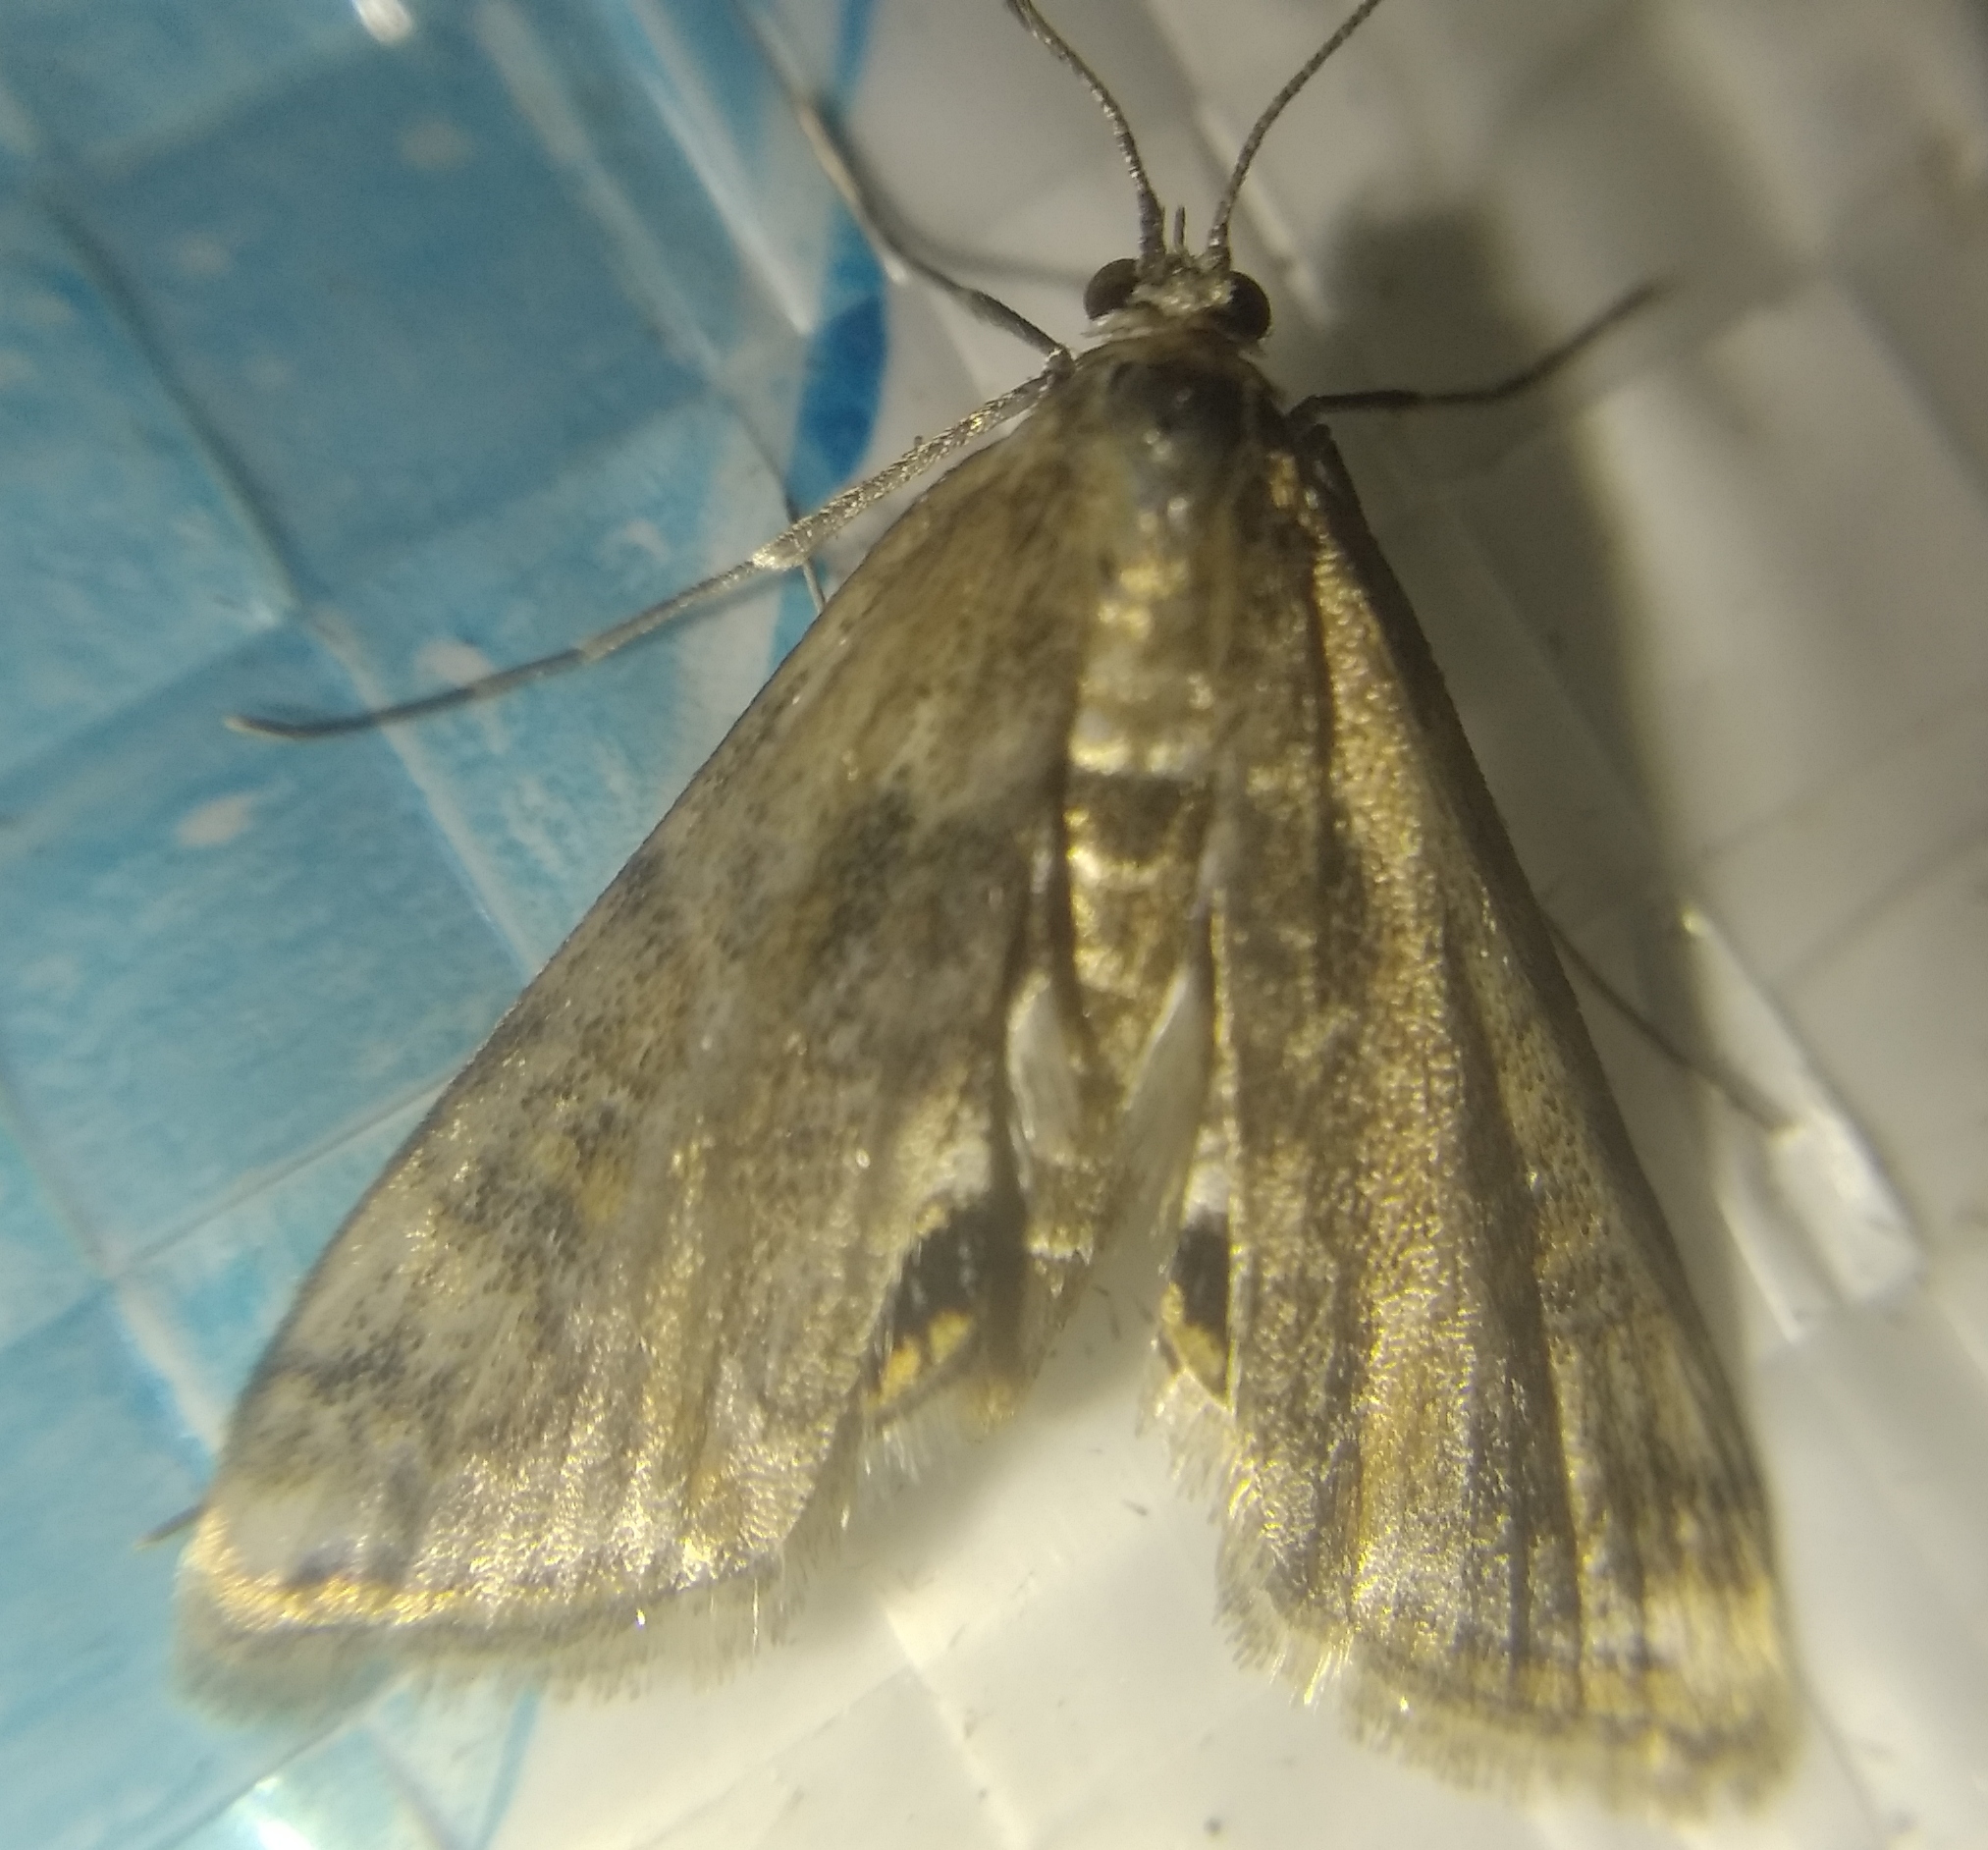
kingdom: Animalia
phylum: Arthropoda
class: Insecta
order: Lepidoptera
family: Crambidae
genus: Cataclysta
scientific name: Cataclysta lemnata
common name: Small china-mark
